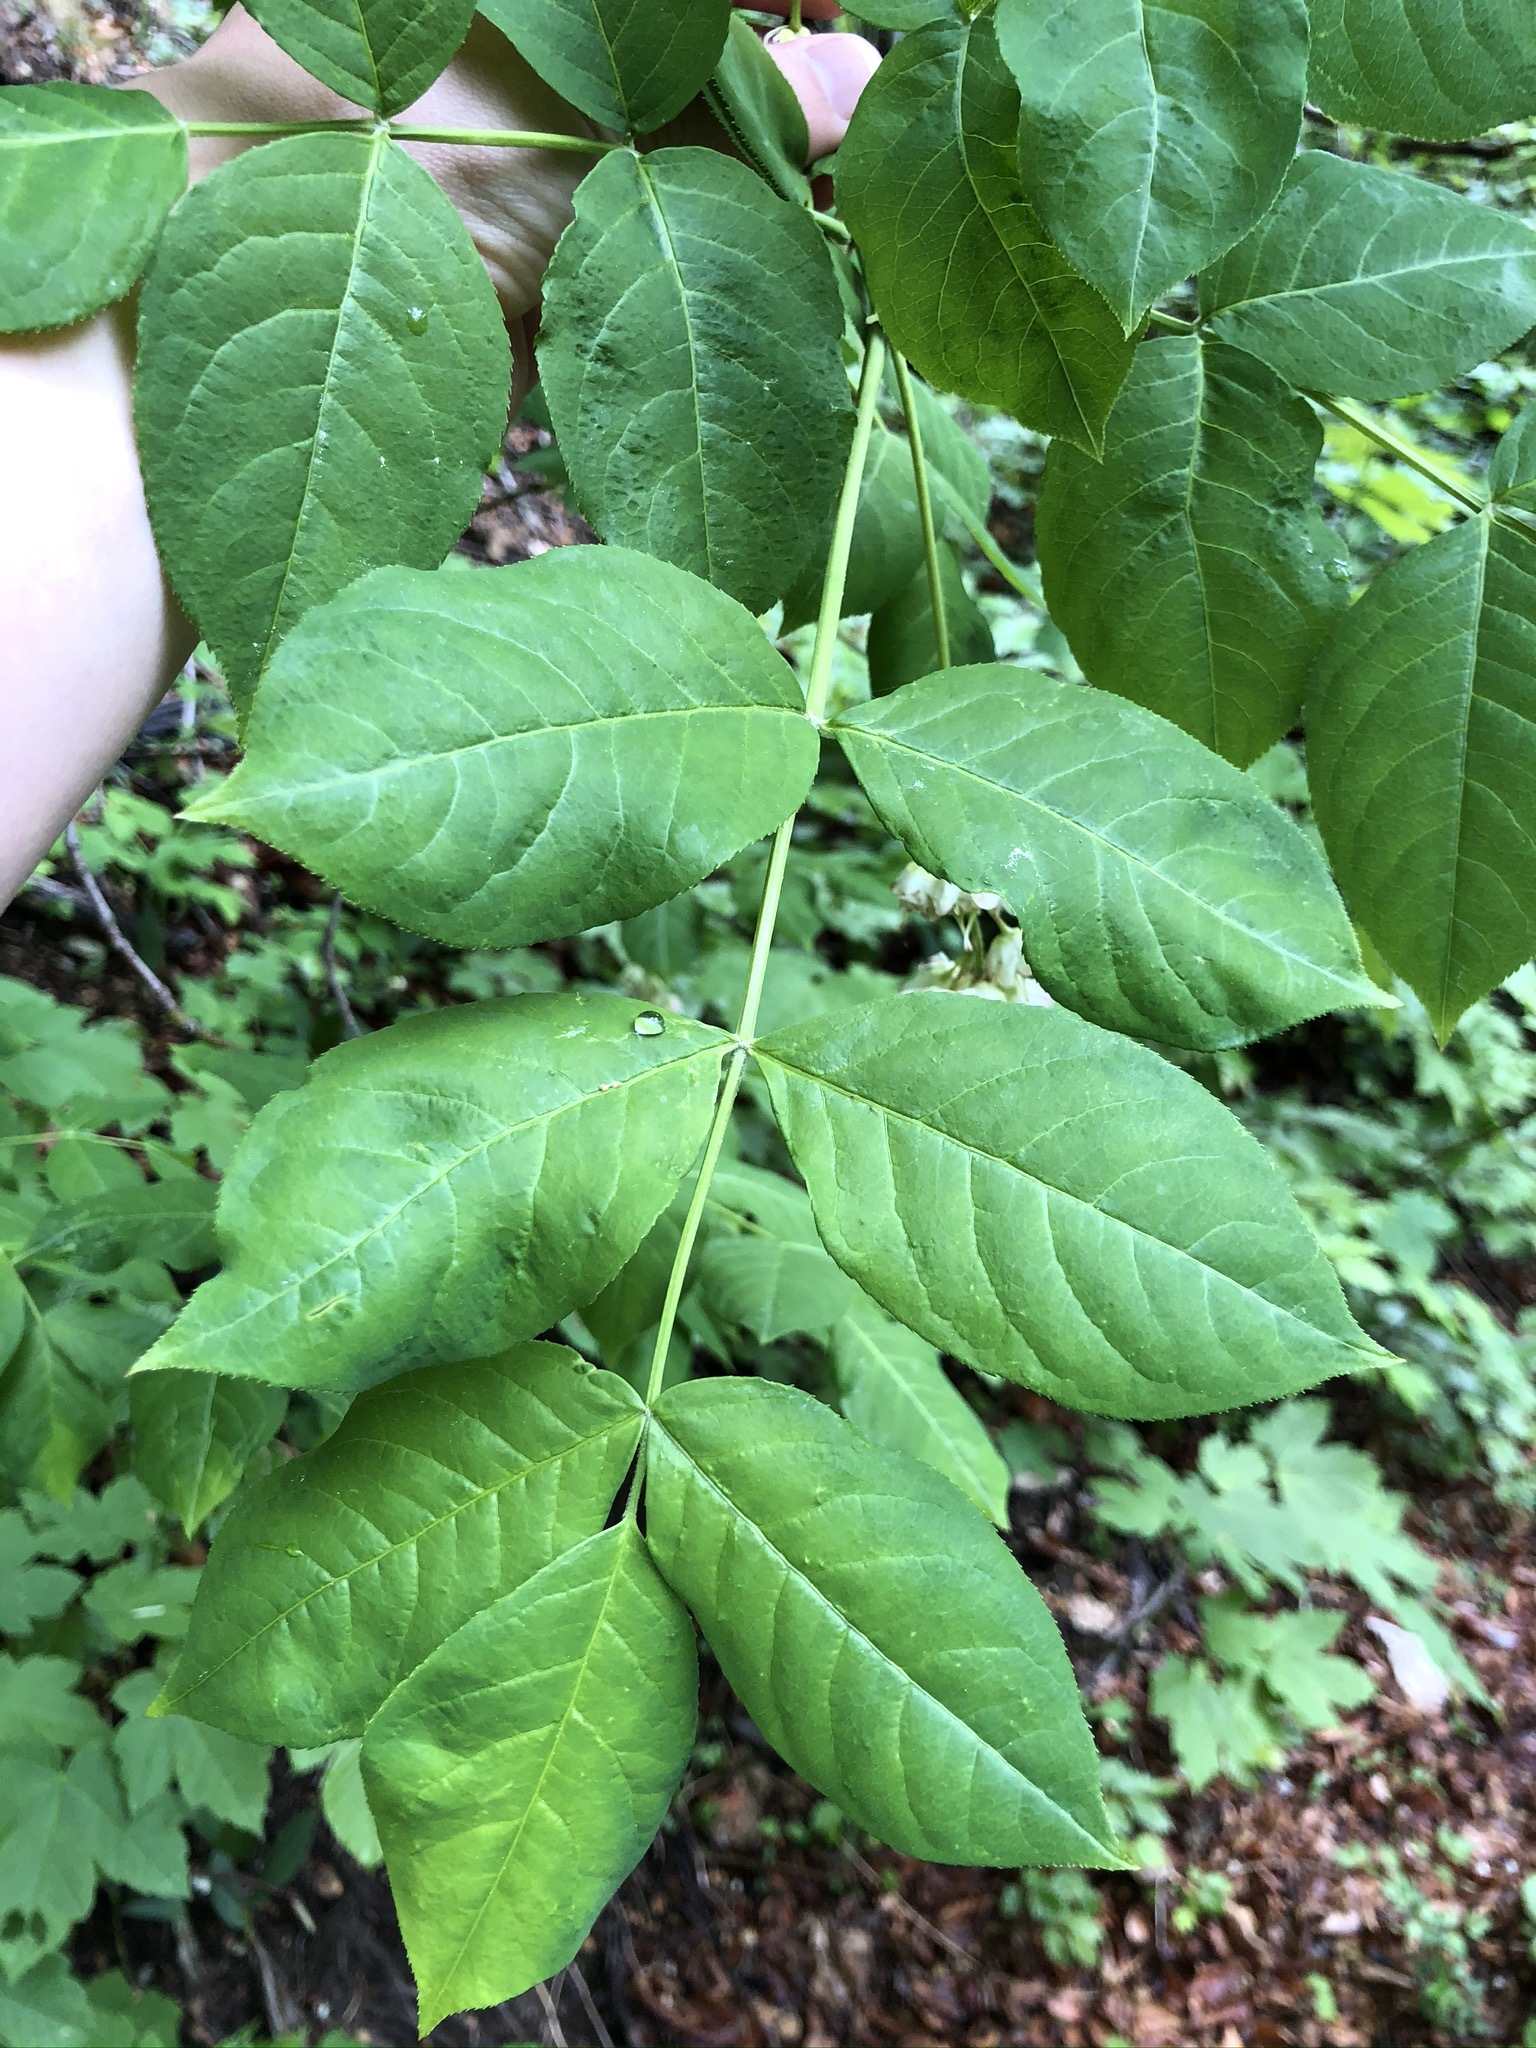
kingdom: Plantae
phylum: Tracheophyta
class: Magnoliopsida
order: Crossosomatales
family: Staphyleaceae
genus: Staphylea
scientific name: Staphylea pinnata
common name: Bladdernut
